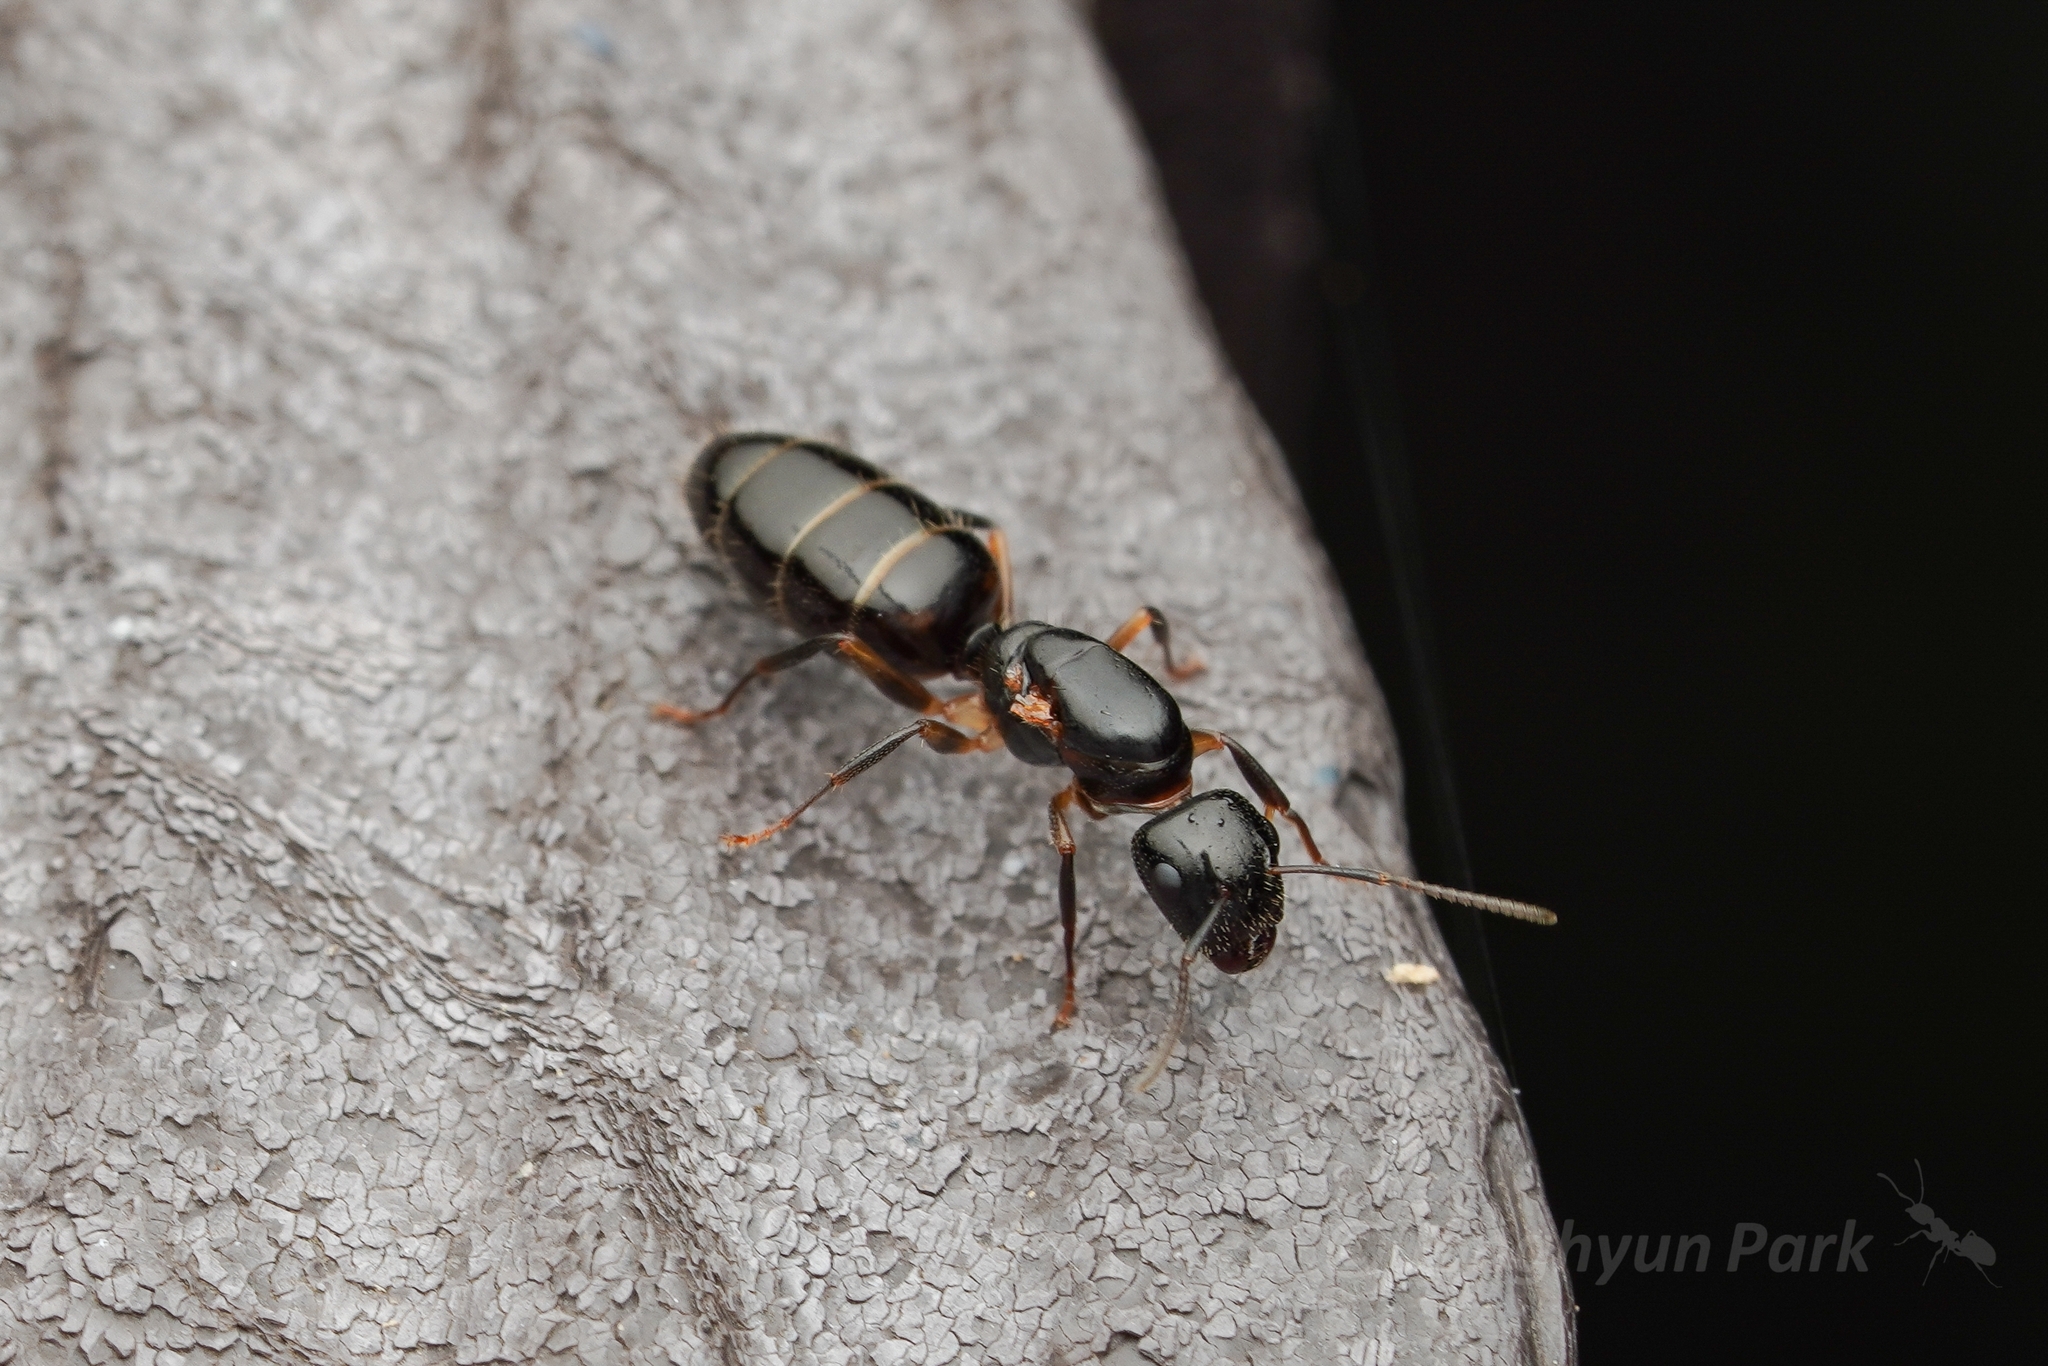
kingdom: Animalia
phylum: Arthropoda
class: Insecta
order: Hymenoptera
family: Formicidae
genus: Camponotus
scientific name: Camponotus
